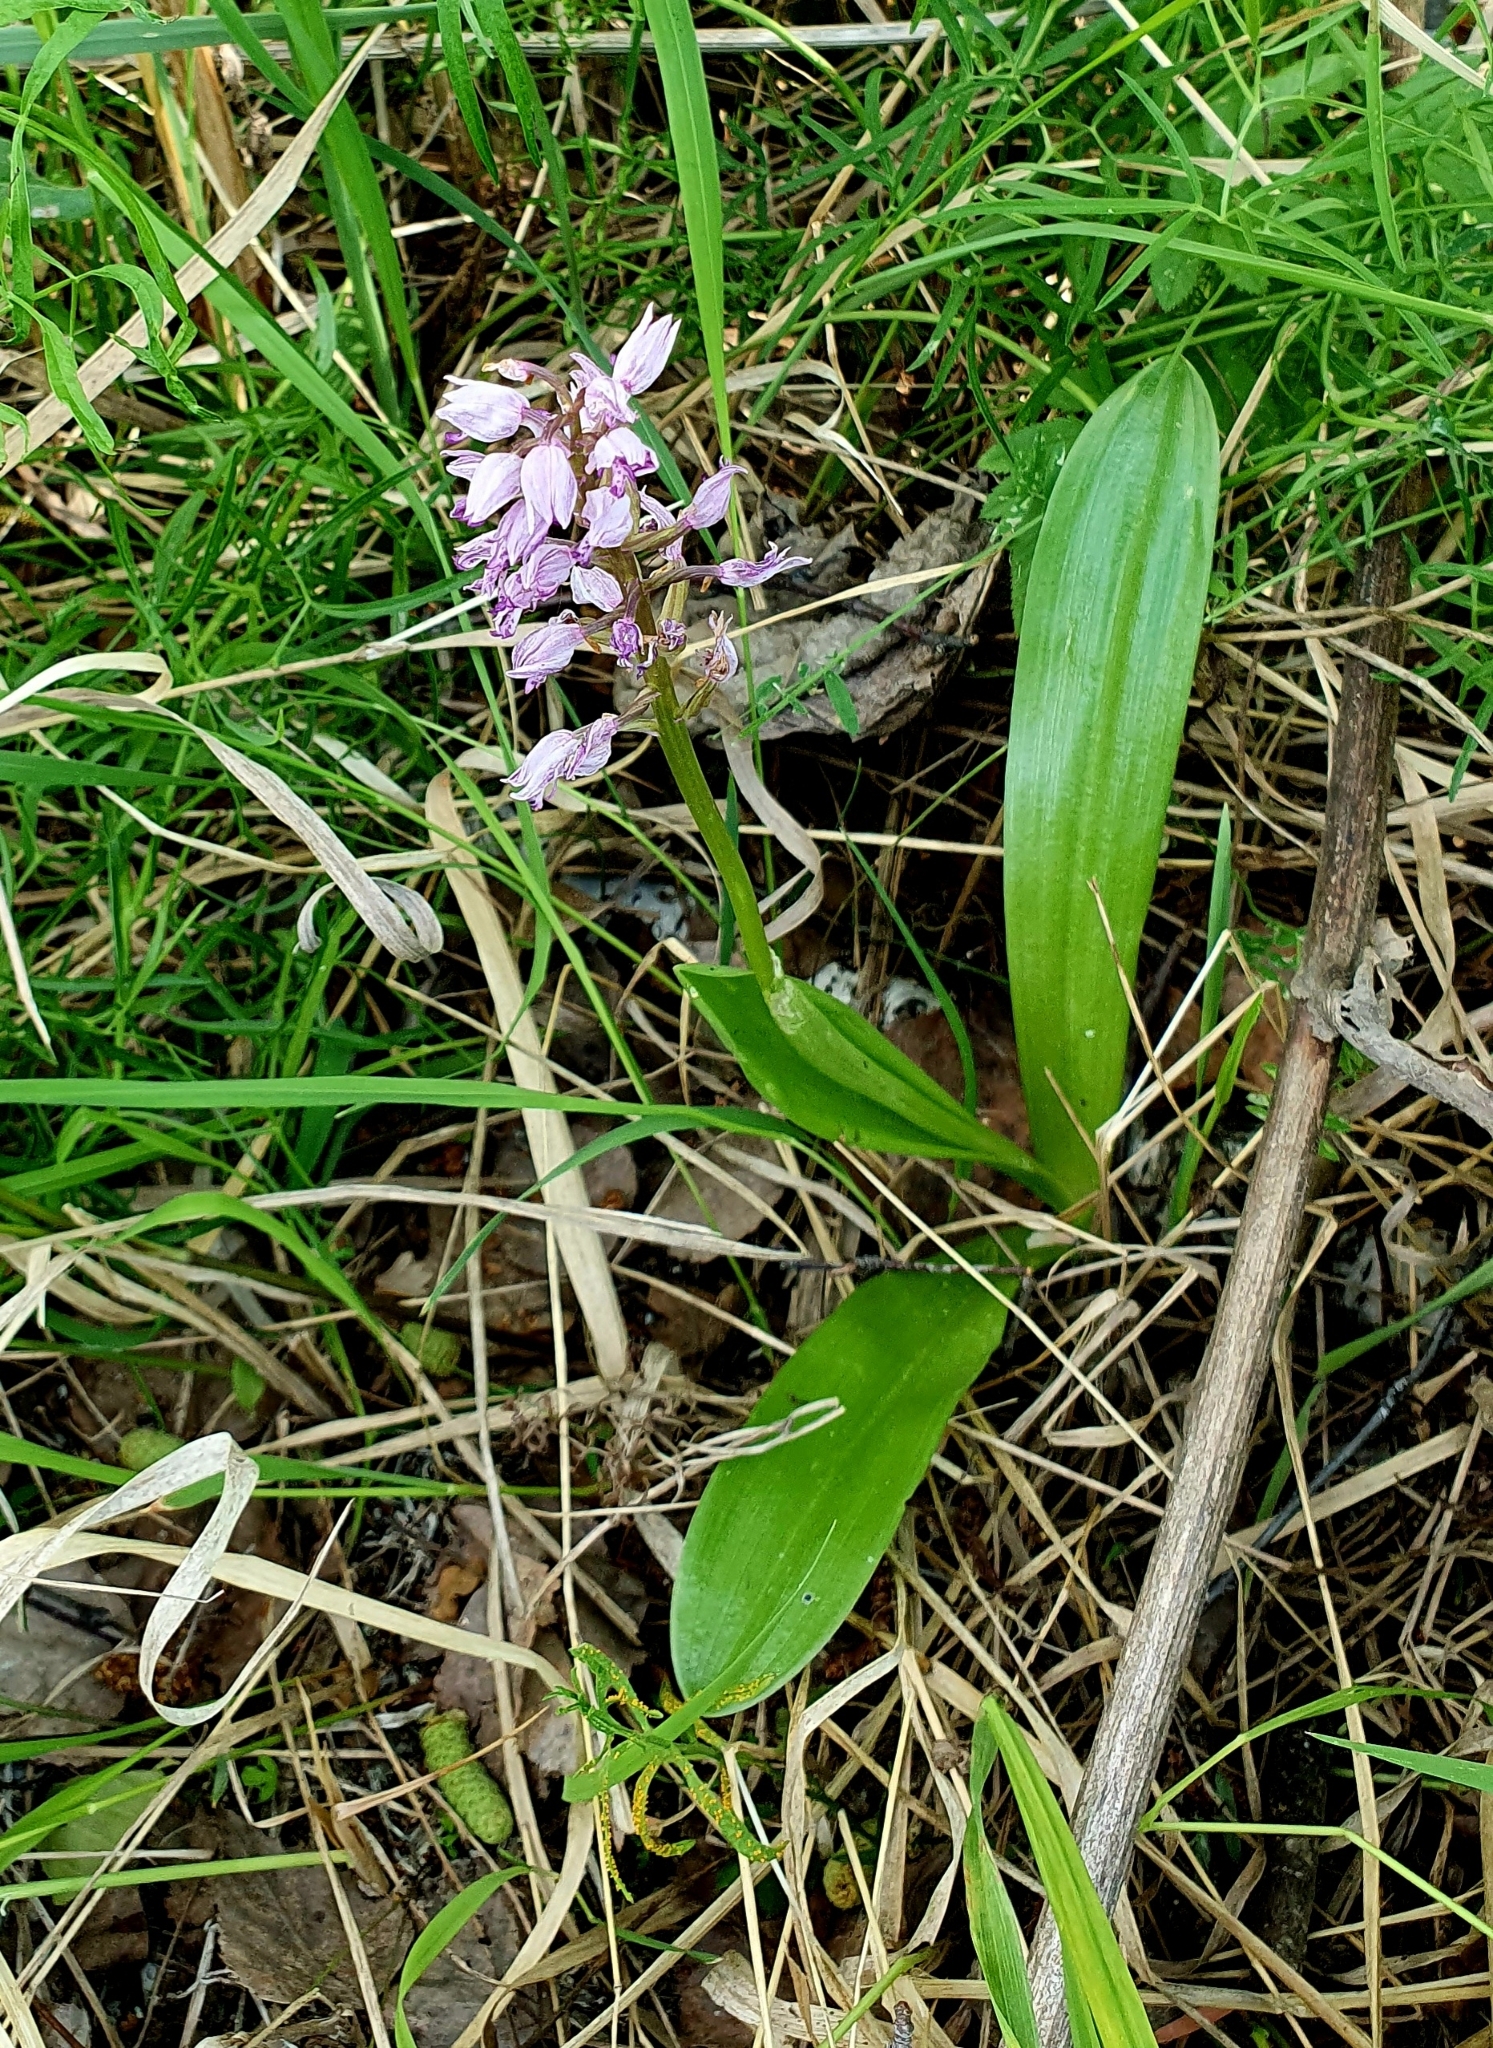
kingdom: Plantae
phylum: Tracheophyta
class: Liliopsida
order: Asparagales
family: Orchidaceae
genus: Orchis
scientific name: Orchis militaris
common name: Military orchid
